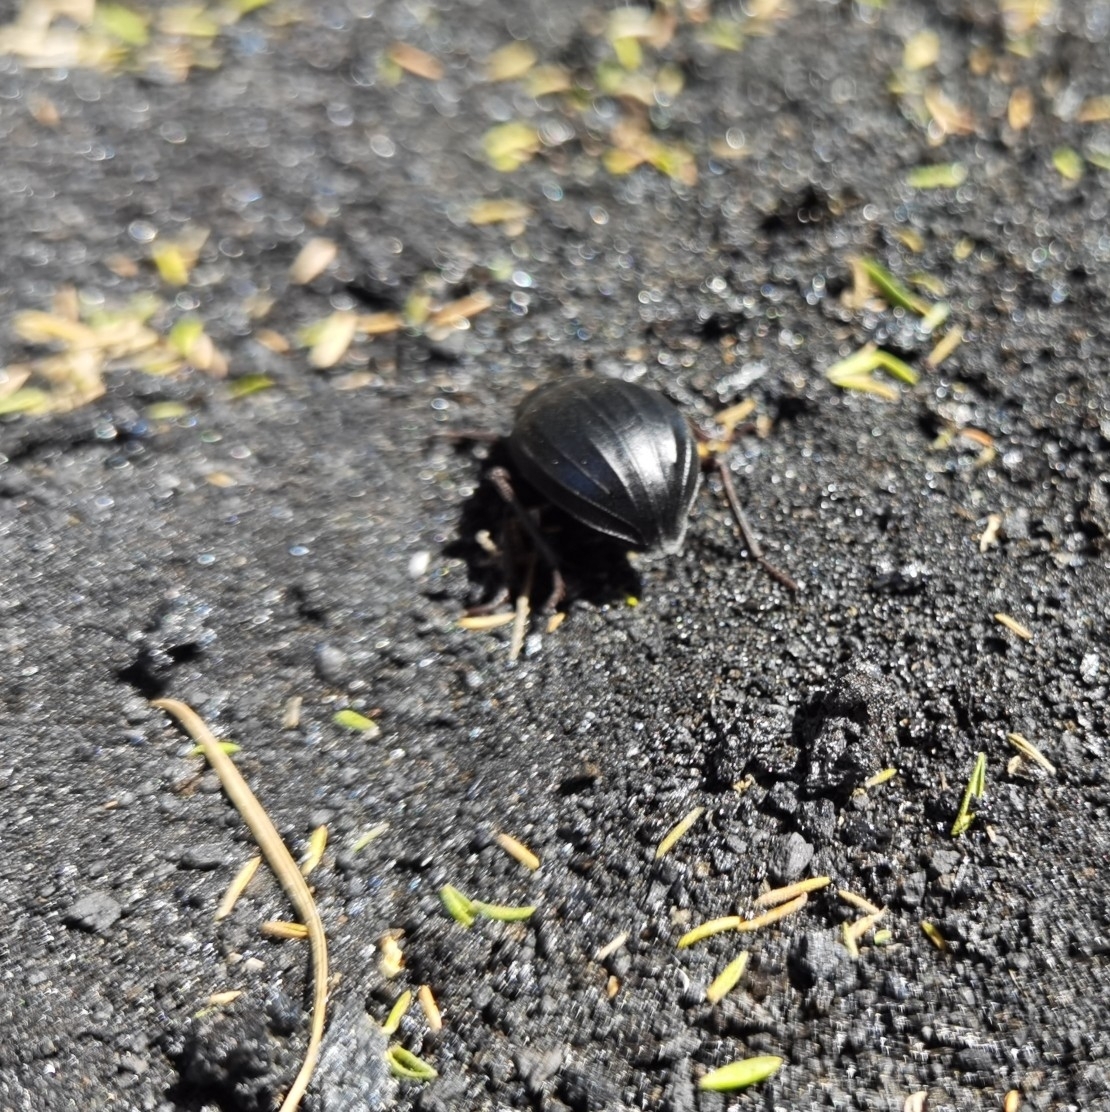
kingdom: Animalia
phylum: Arthropoda
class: Insecta
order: Coleoptera
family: Tenebrionidae
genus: Pimelia
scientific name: Pimelia laevigata
